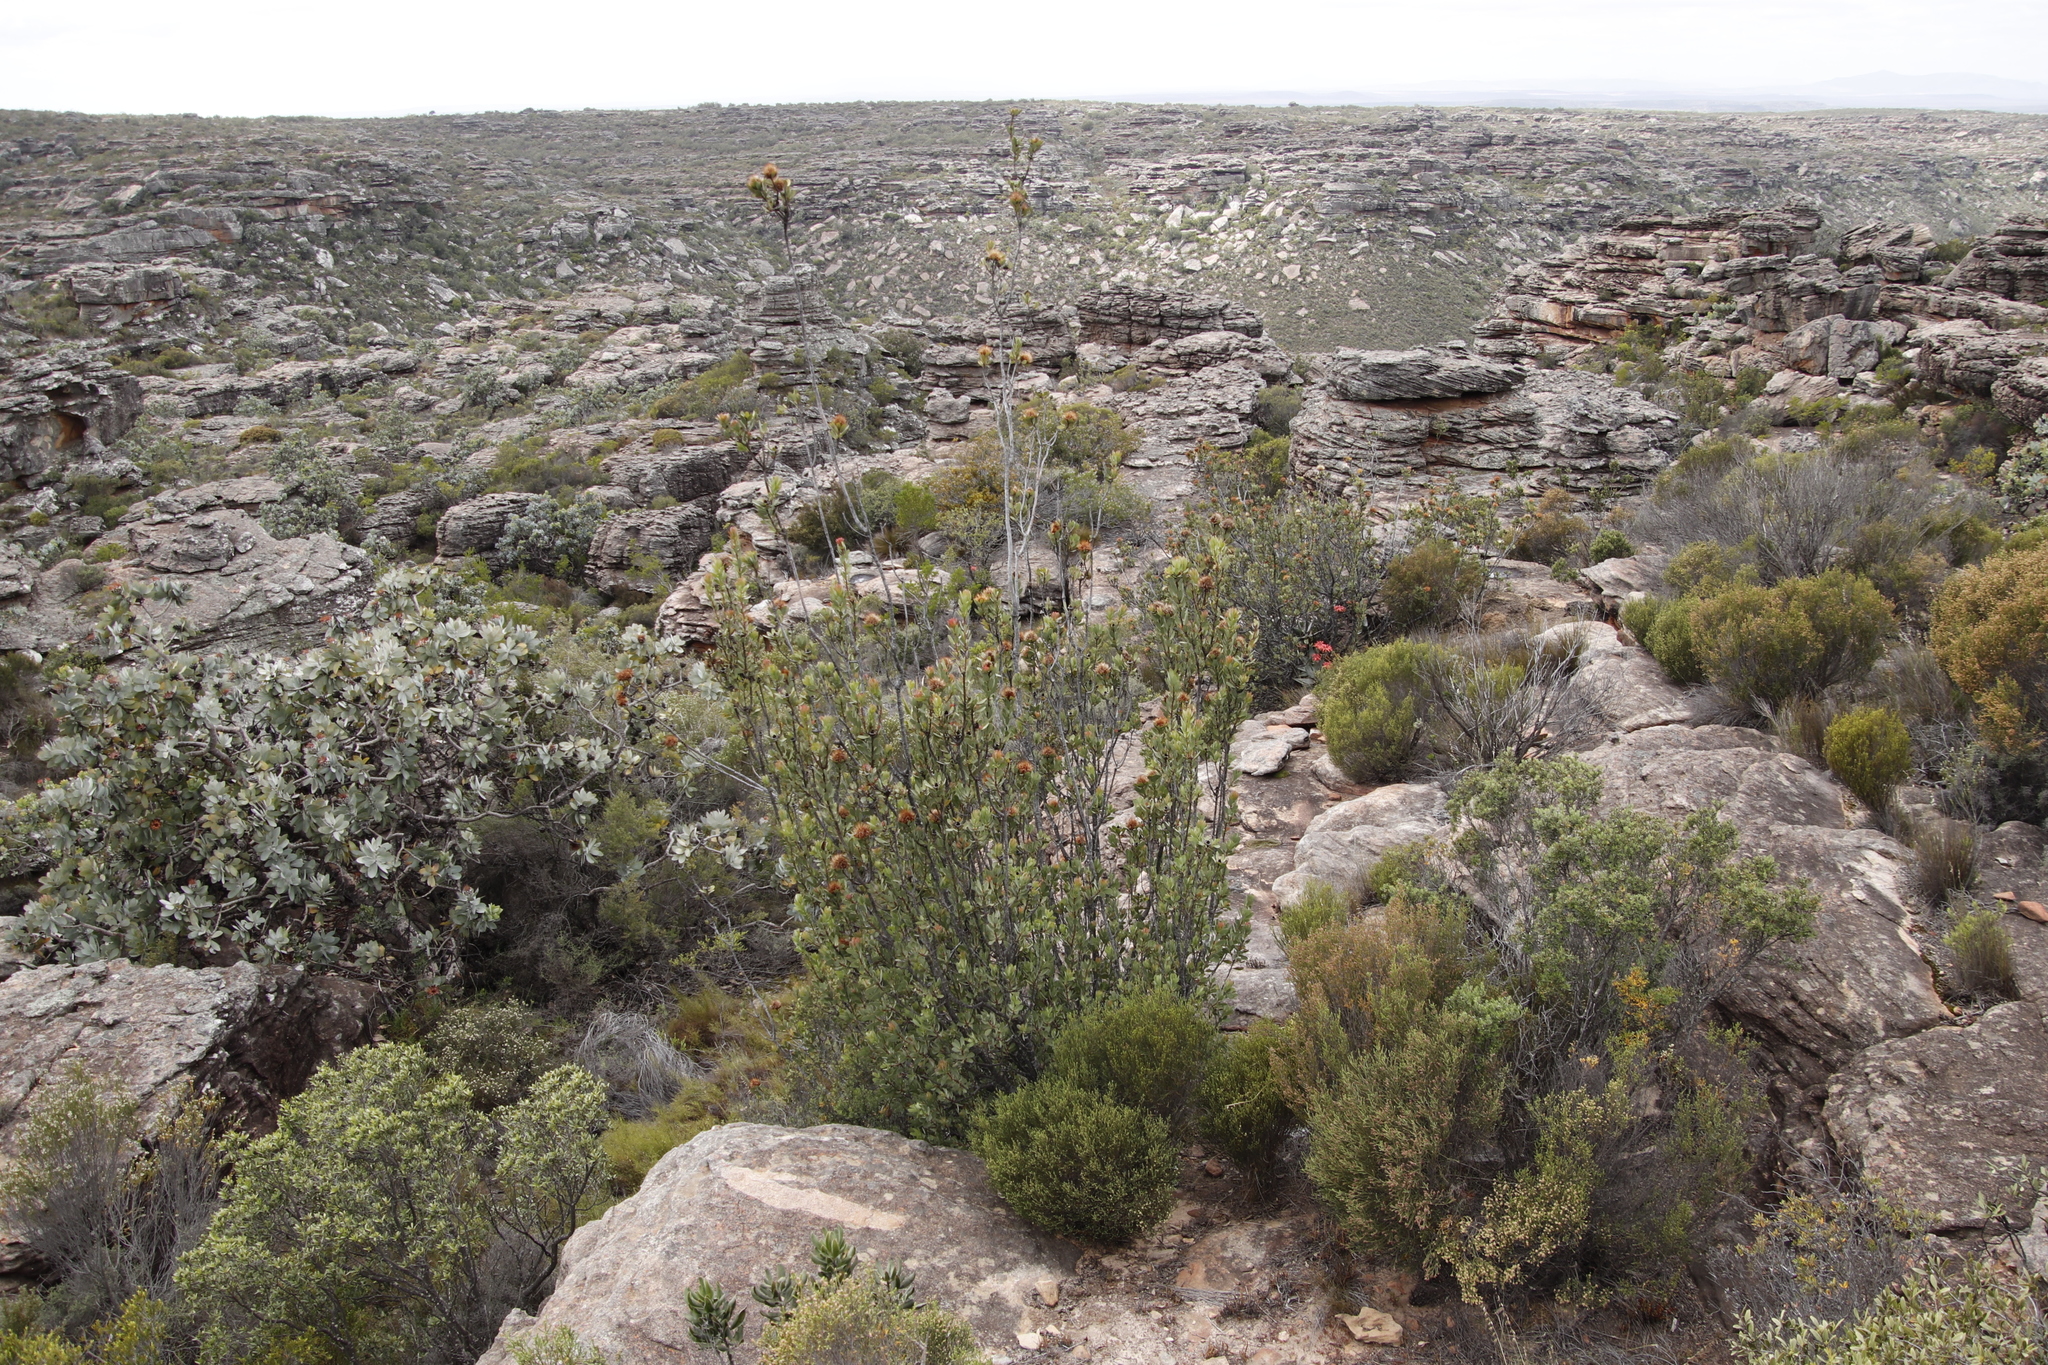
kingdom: Plantae
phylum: Tracheophyta
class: Magnoliopsida
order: Proteales
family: Proteaceae
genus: Protea
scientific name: Protea glabra
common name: Chestnut sugarbush
